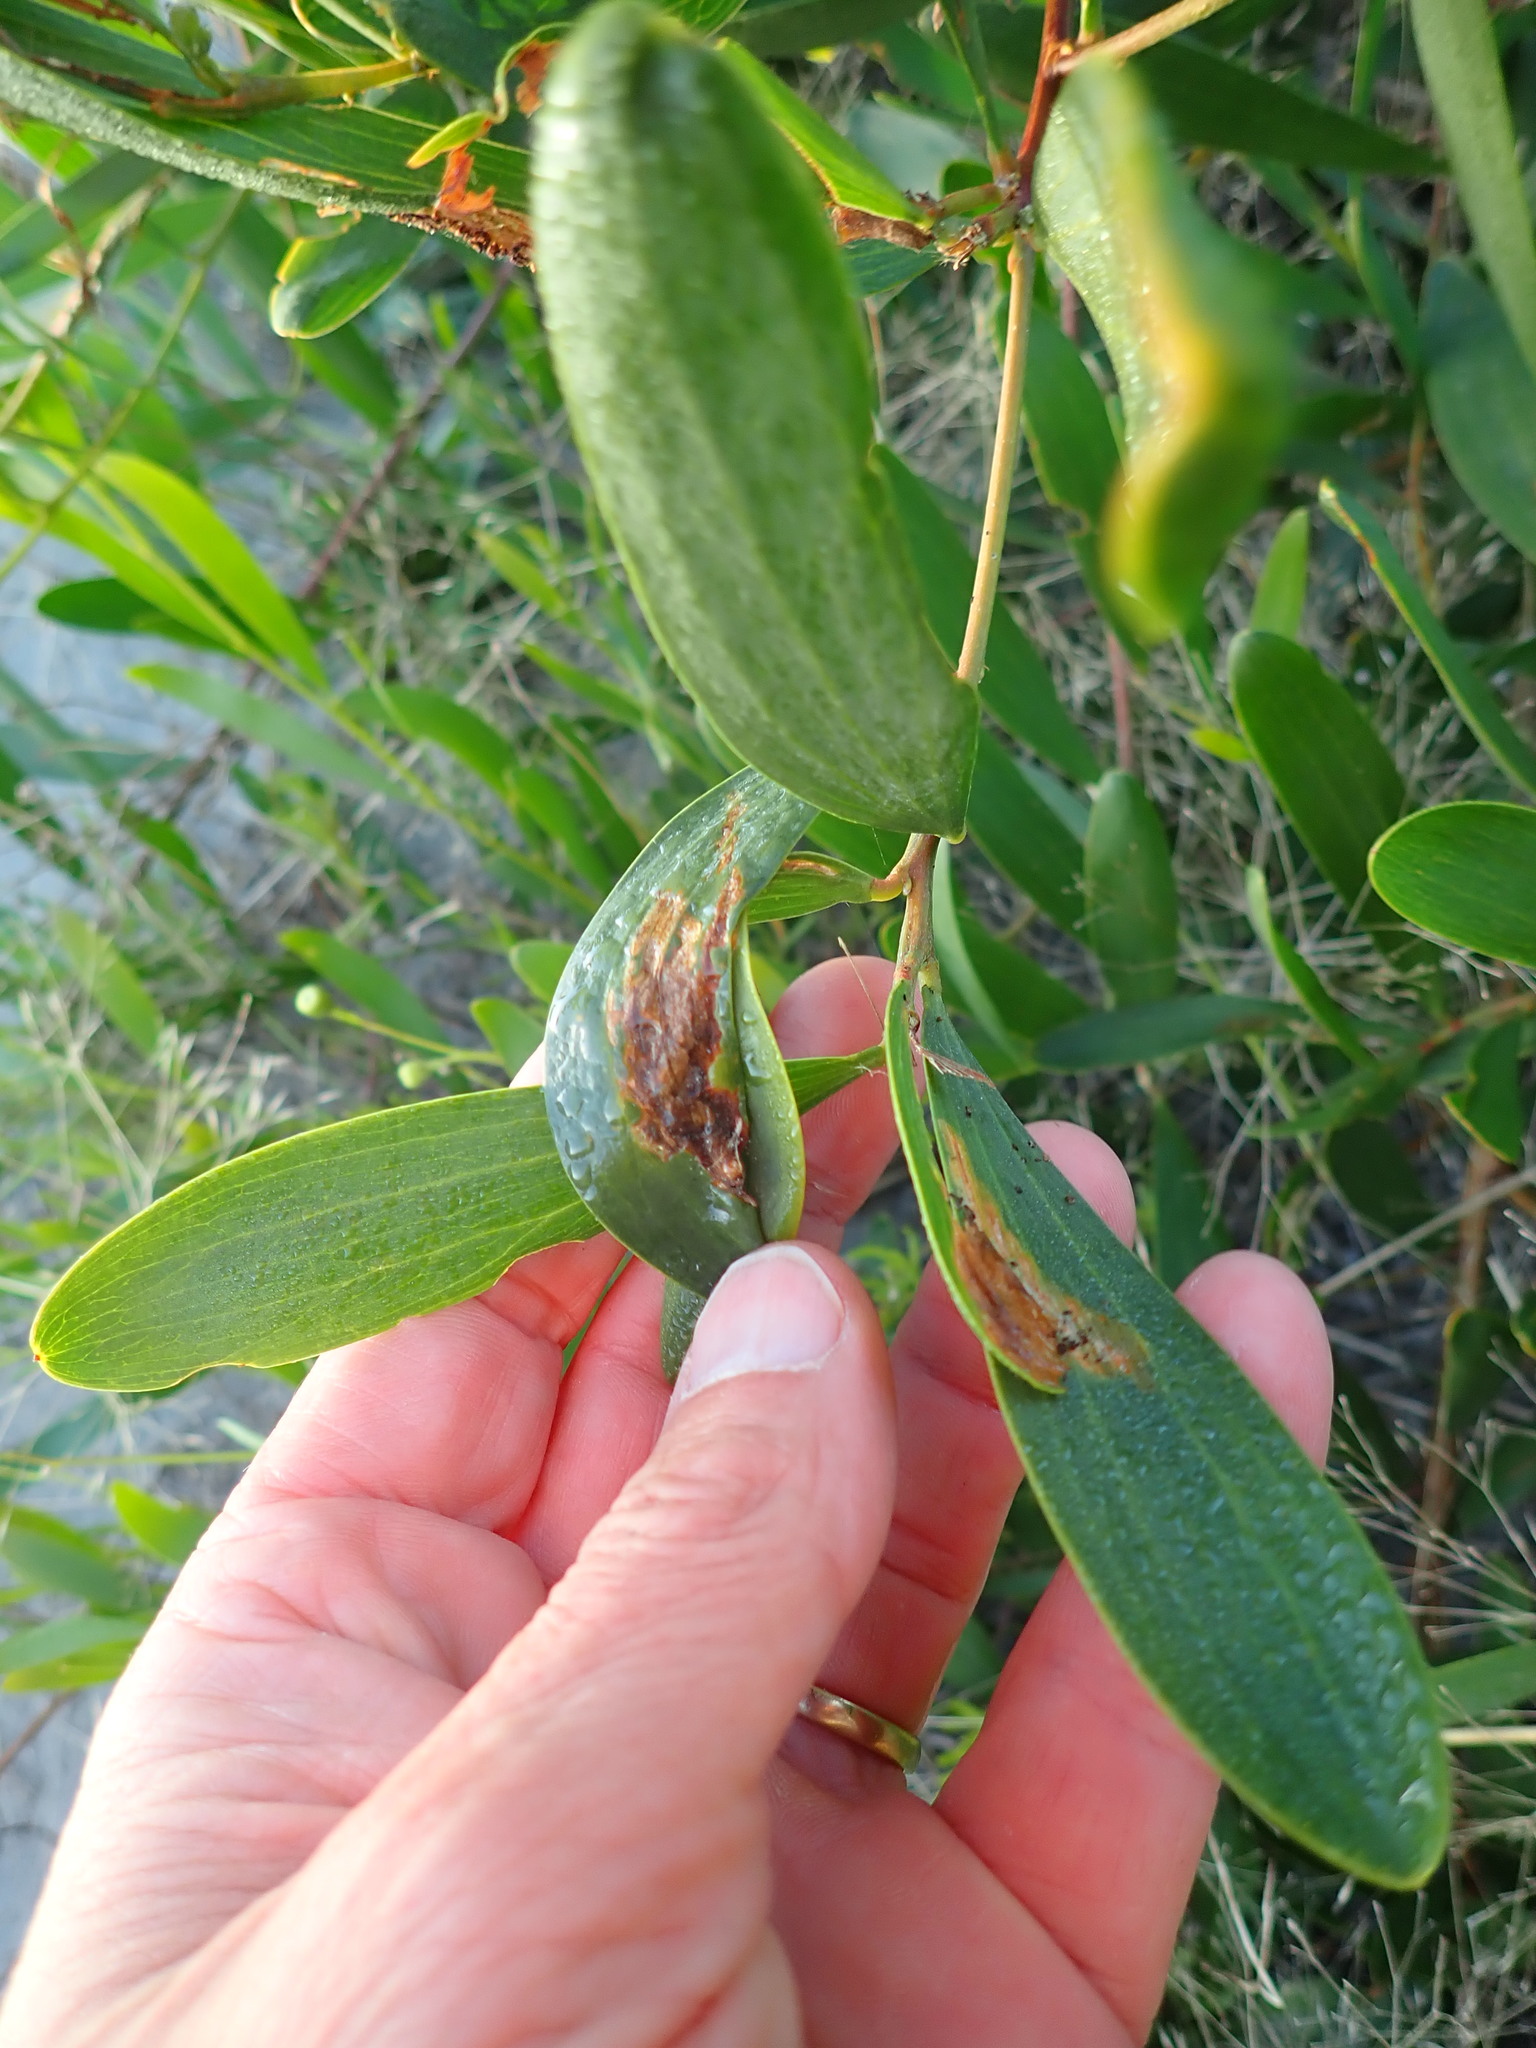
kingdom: Plantae
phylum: Tracheophyta
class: Magnoliopsida
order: Fabales
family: Fabaceae
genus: Acacia
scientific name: Acacia longifolia
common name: Sydney golden wattle
